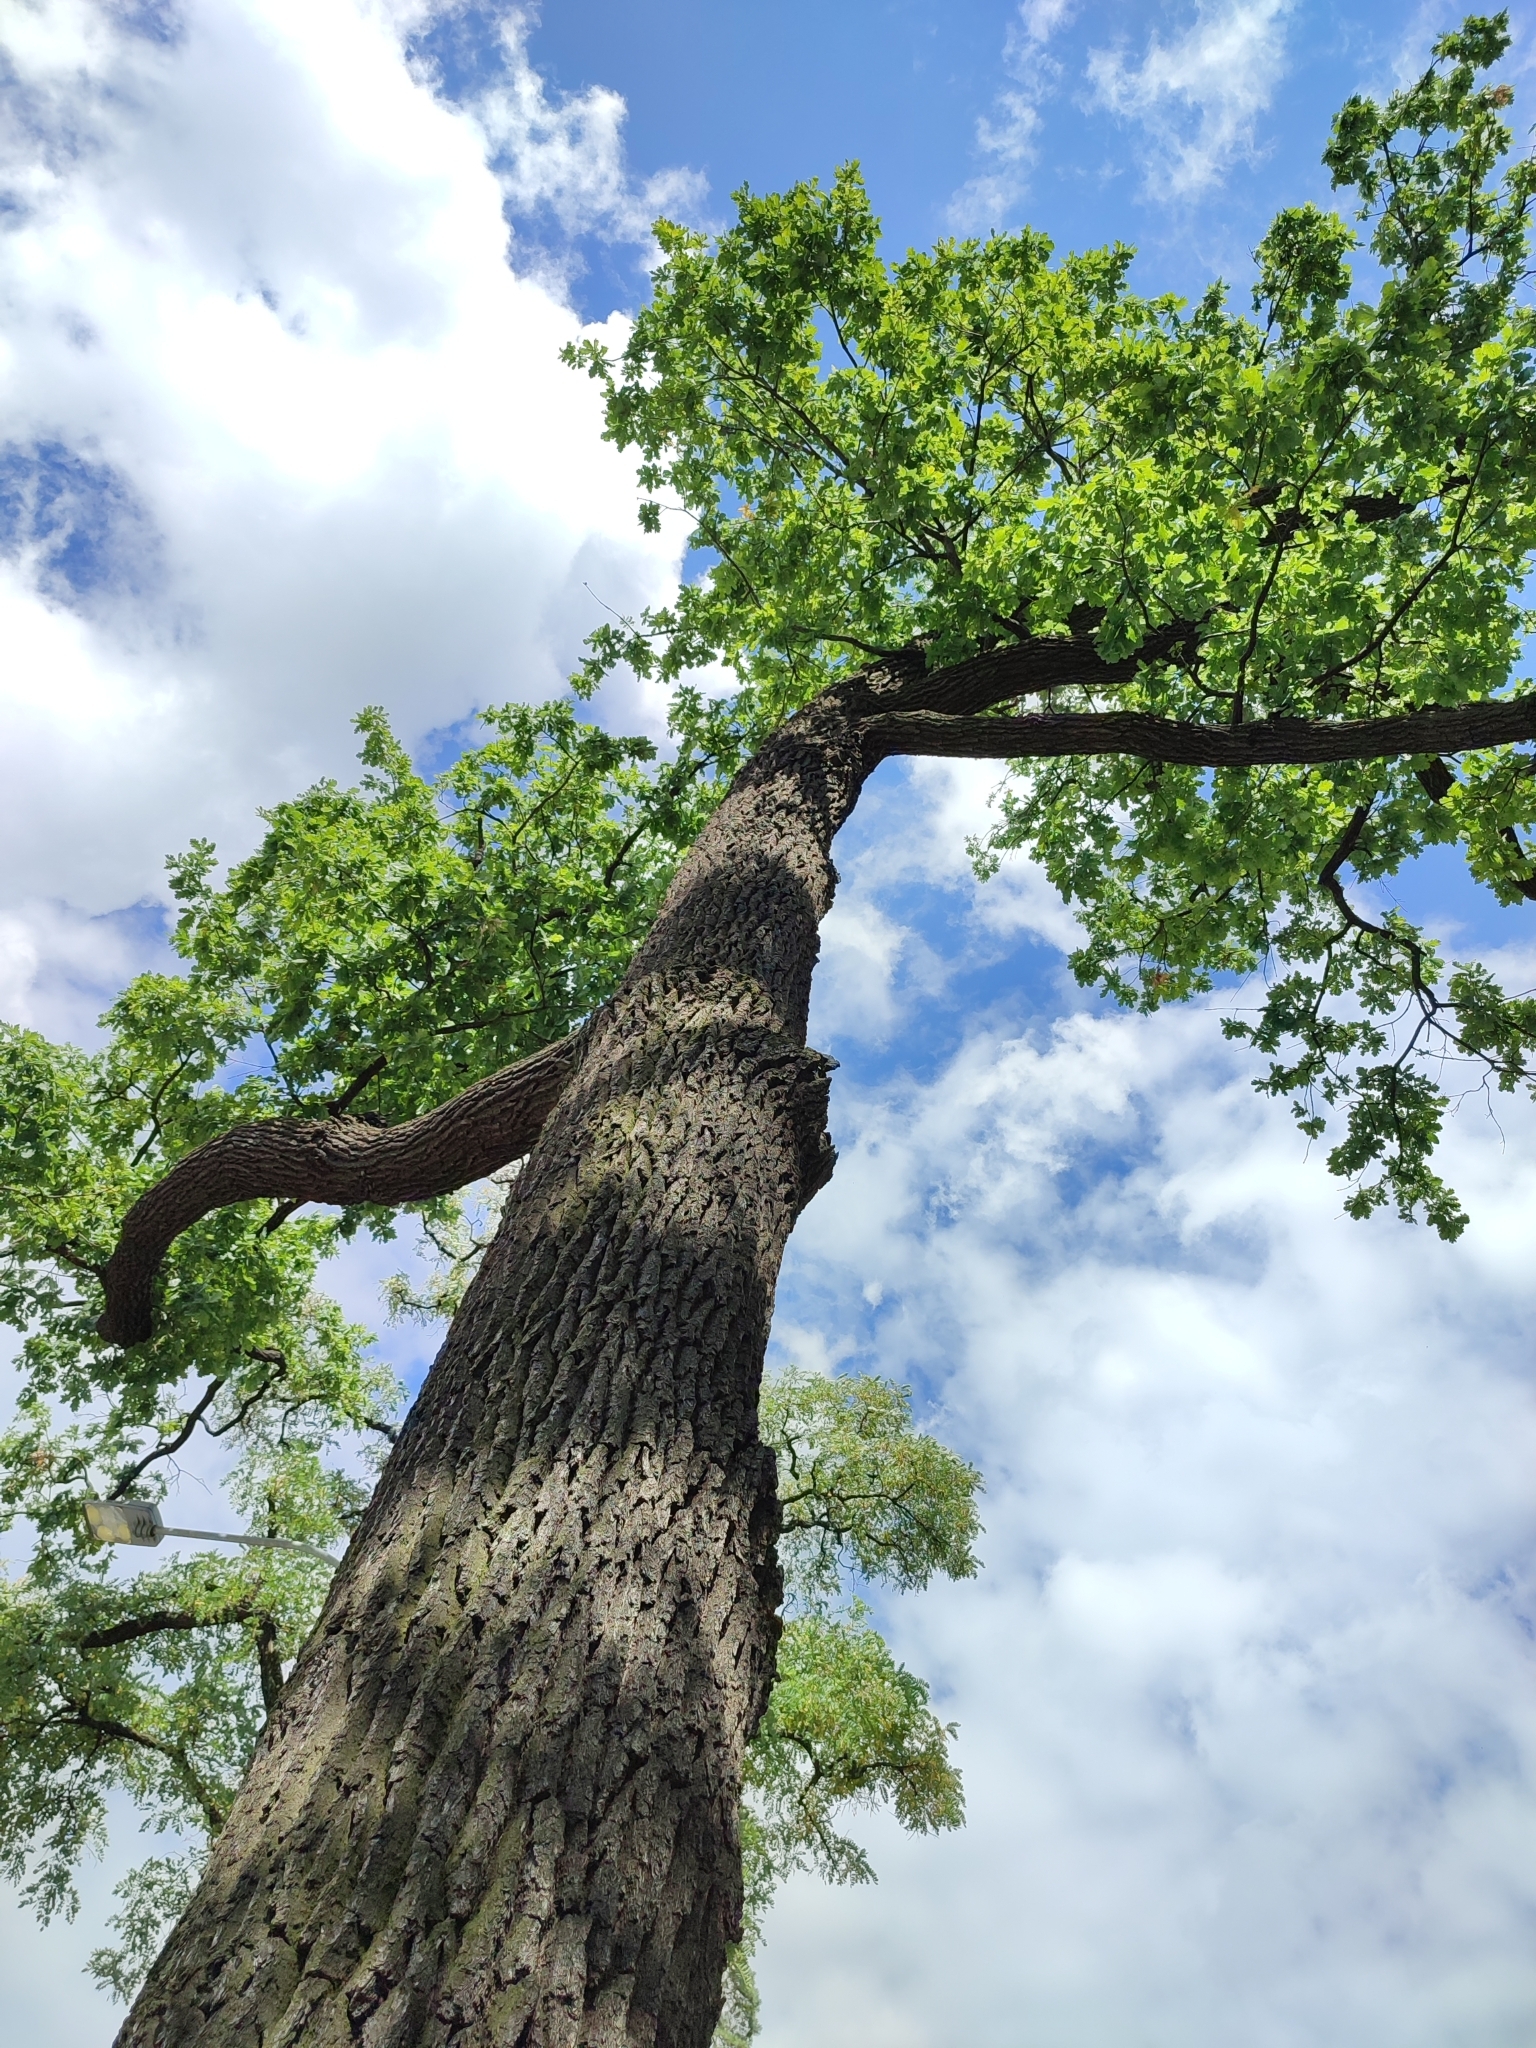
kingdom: Plantae
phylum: Tracheophyta
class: Magnoliopsida
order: Fagales
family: Fagaceae
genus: Quercus
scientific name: Quercus robur
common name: Pedunculate oak
